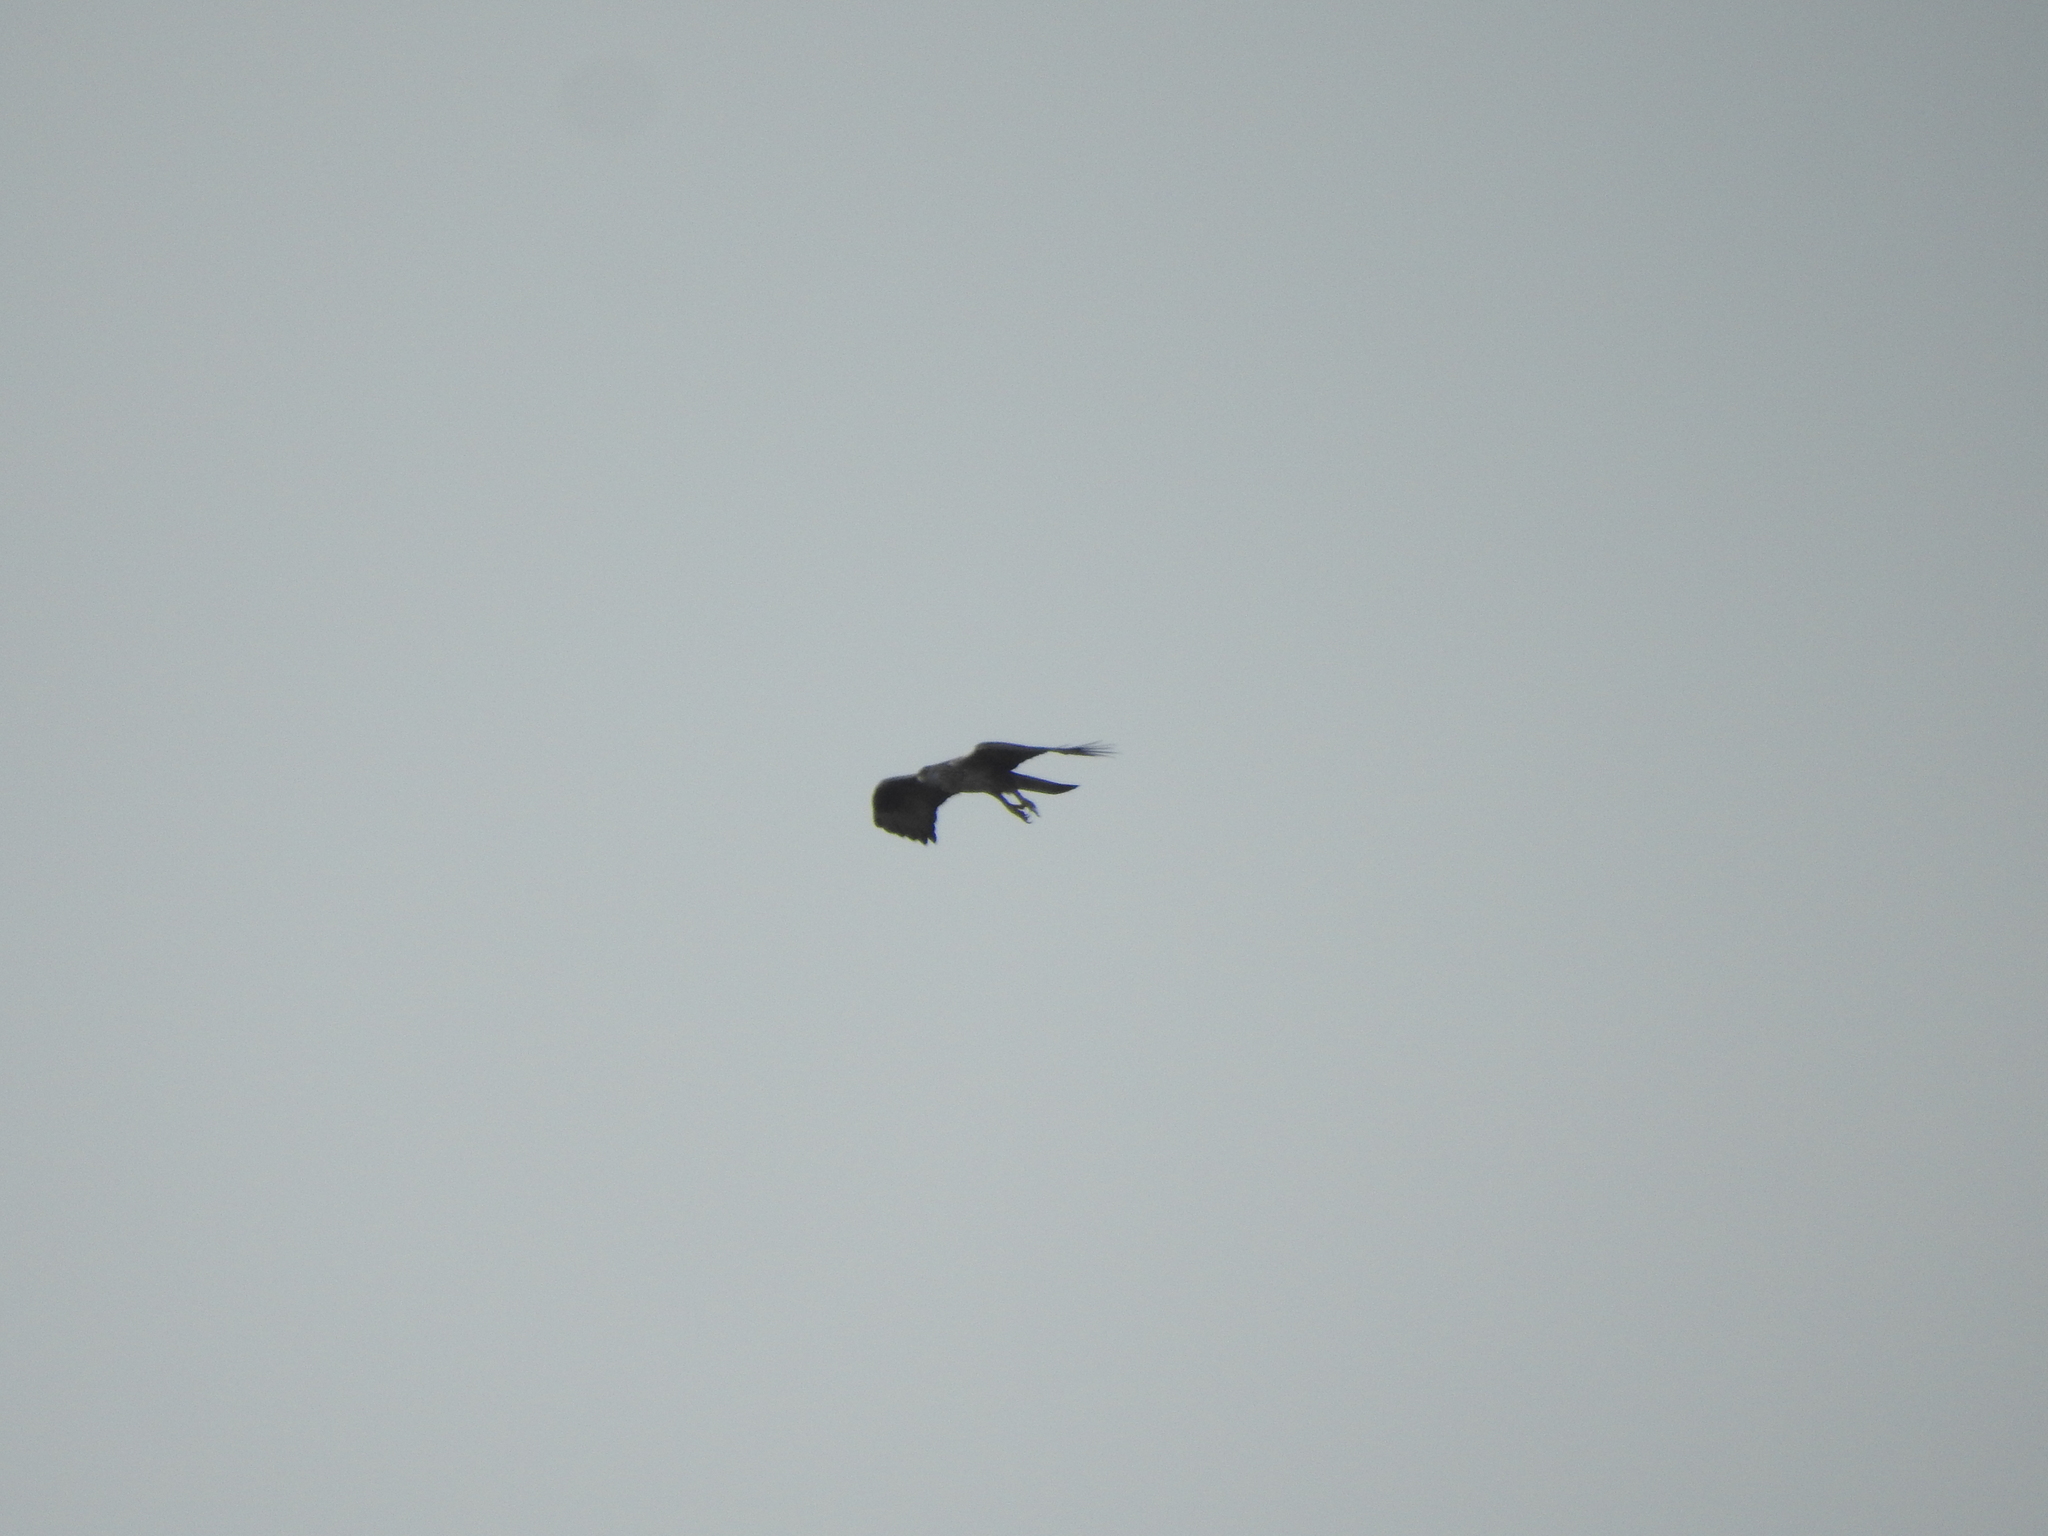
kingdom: Animalia
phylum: Chordata
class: Aves
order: Accipitriformes
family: Accipitridae
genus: Aquila
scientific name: Aquila fasciata
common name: Bonelli's eagle
